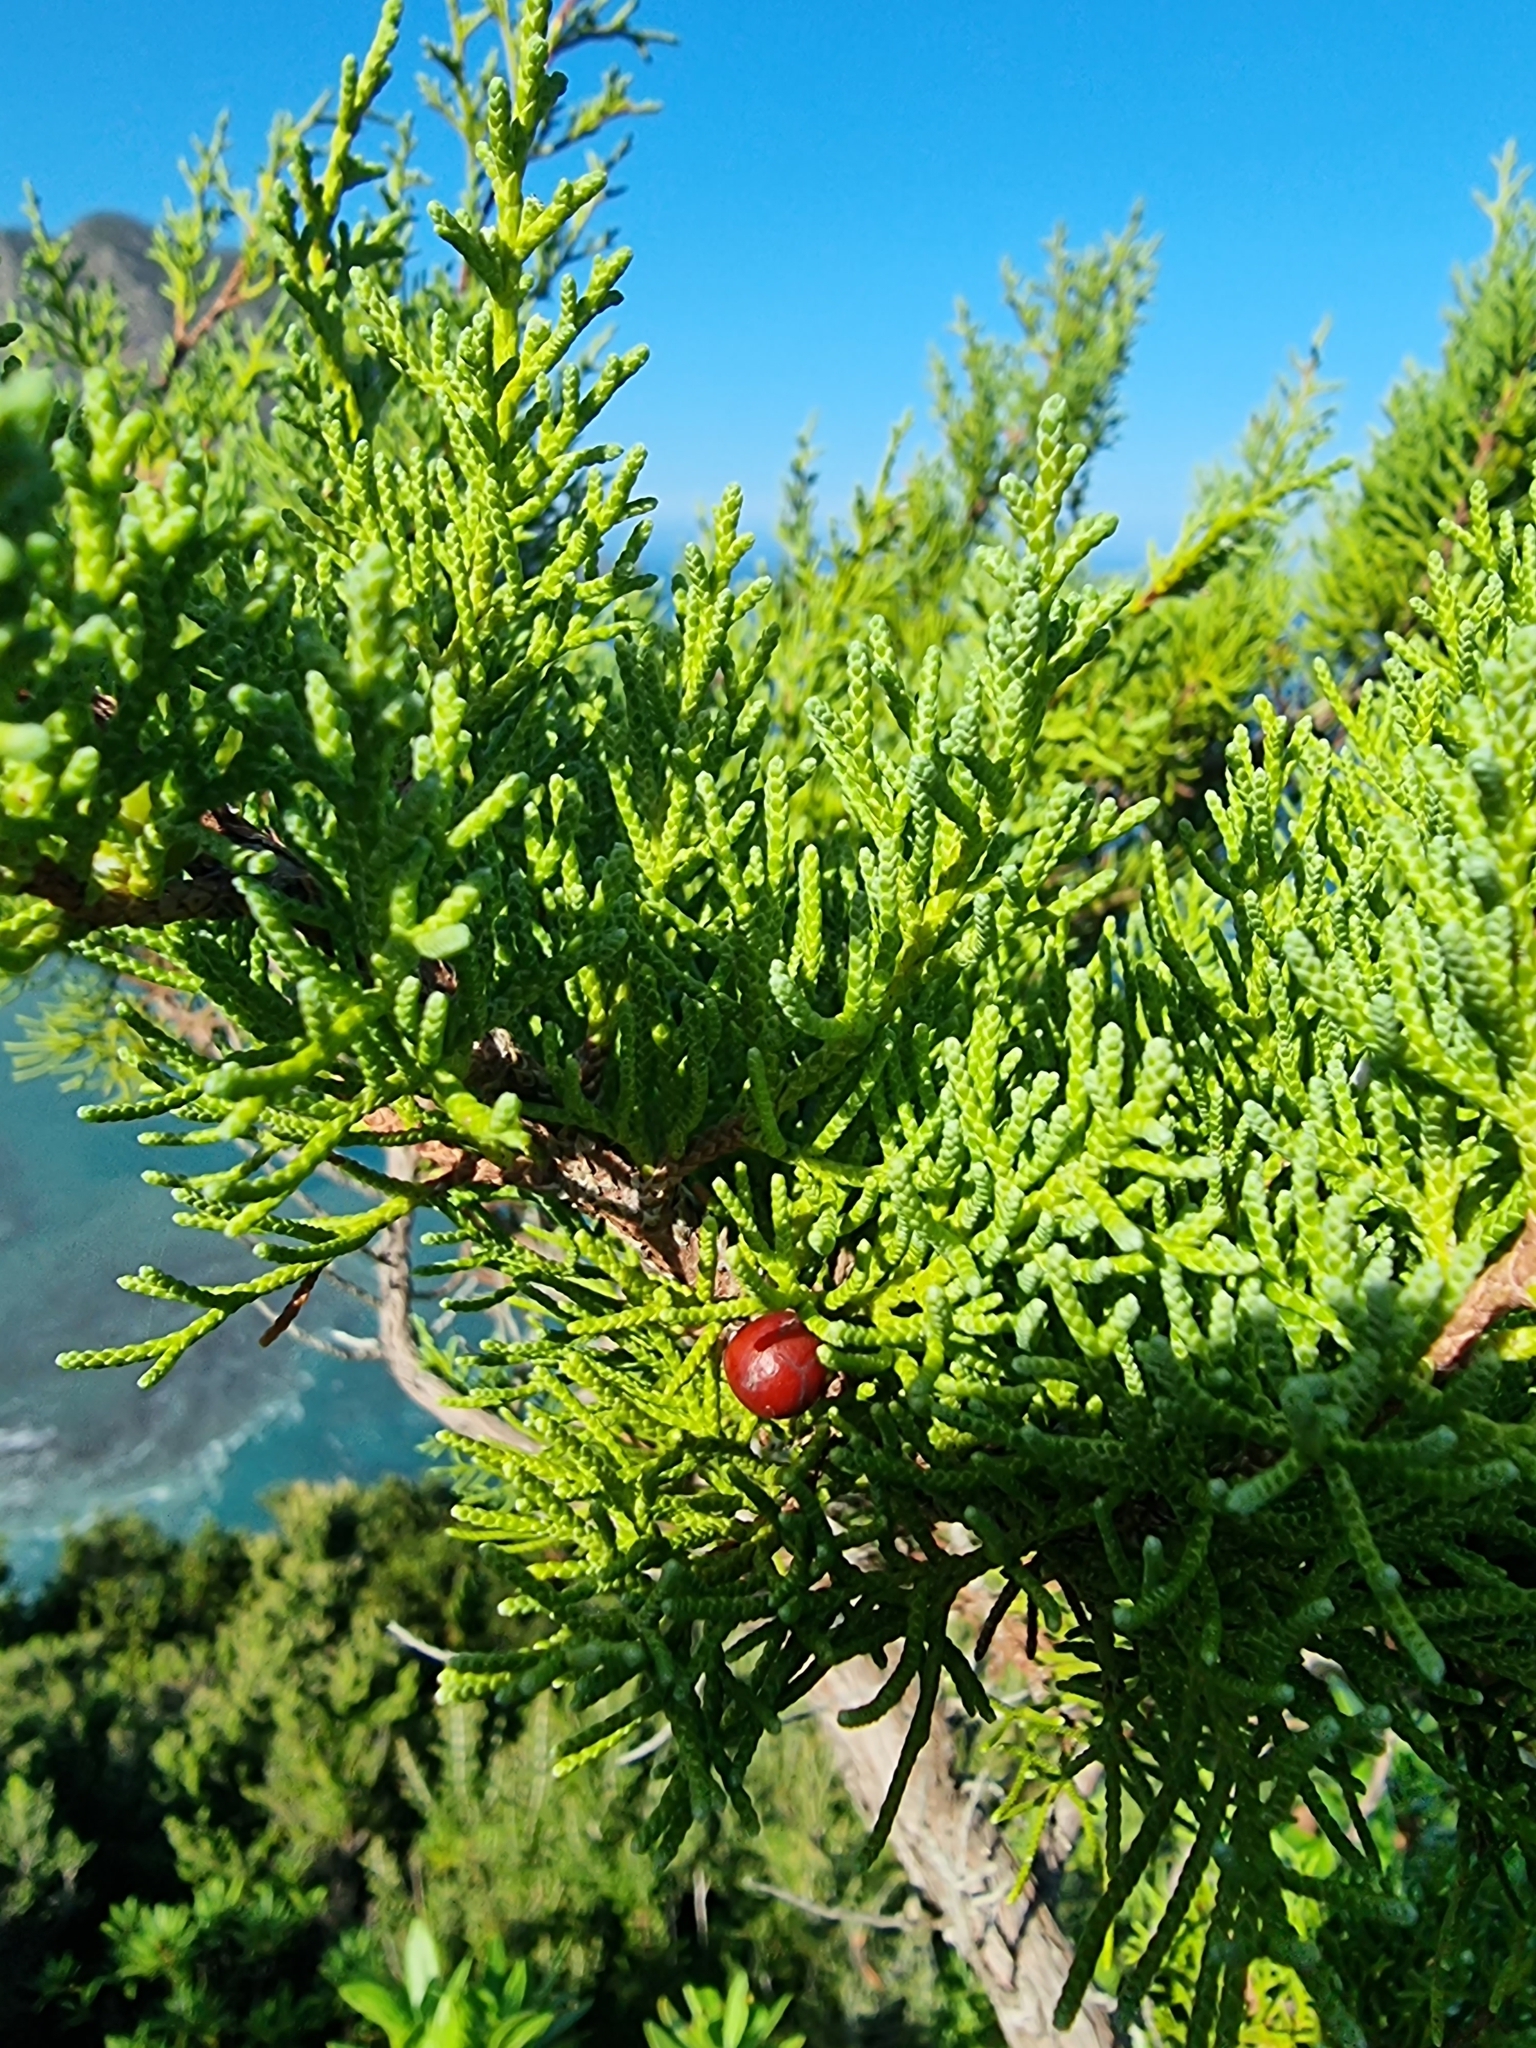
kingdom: Plantae
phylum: Tracheophyta
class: Pinopsida
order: Pinales
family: Cupressaceae
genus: Juniperus
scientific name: Juniperus canariensis
